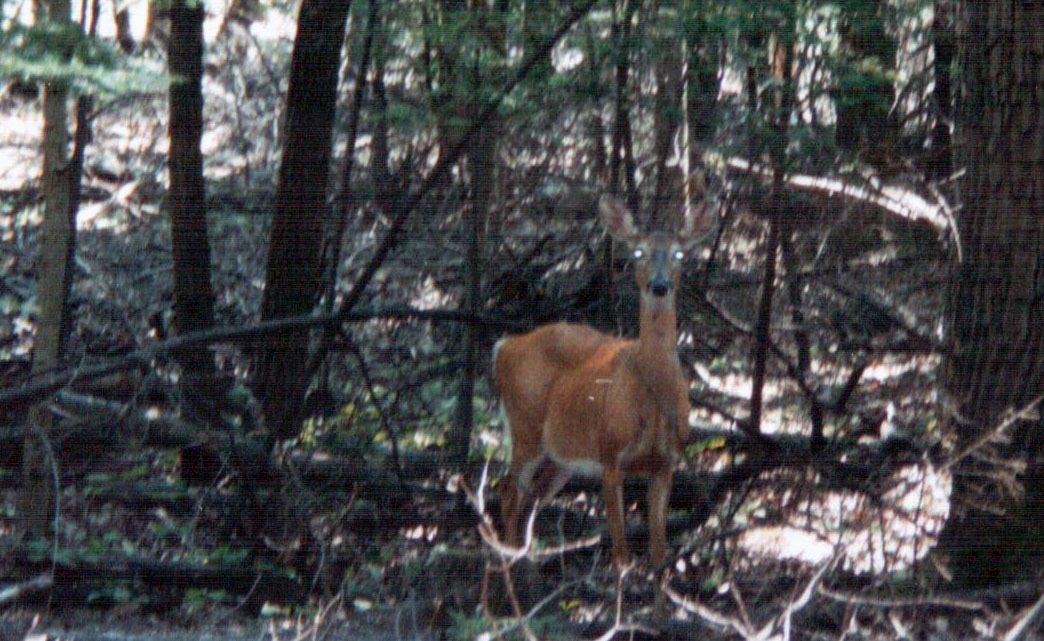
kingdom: Animalia
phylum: Chordata
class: Mammalia
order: Artiodactyla
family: Cervidae
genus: Odocoileus
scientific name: Odocoileus virginianus
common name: White-tailed deer
